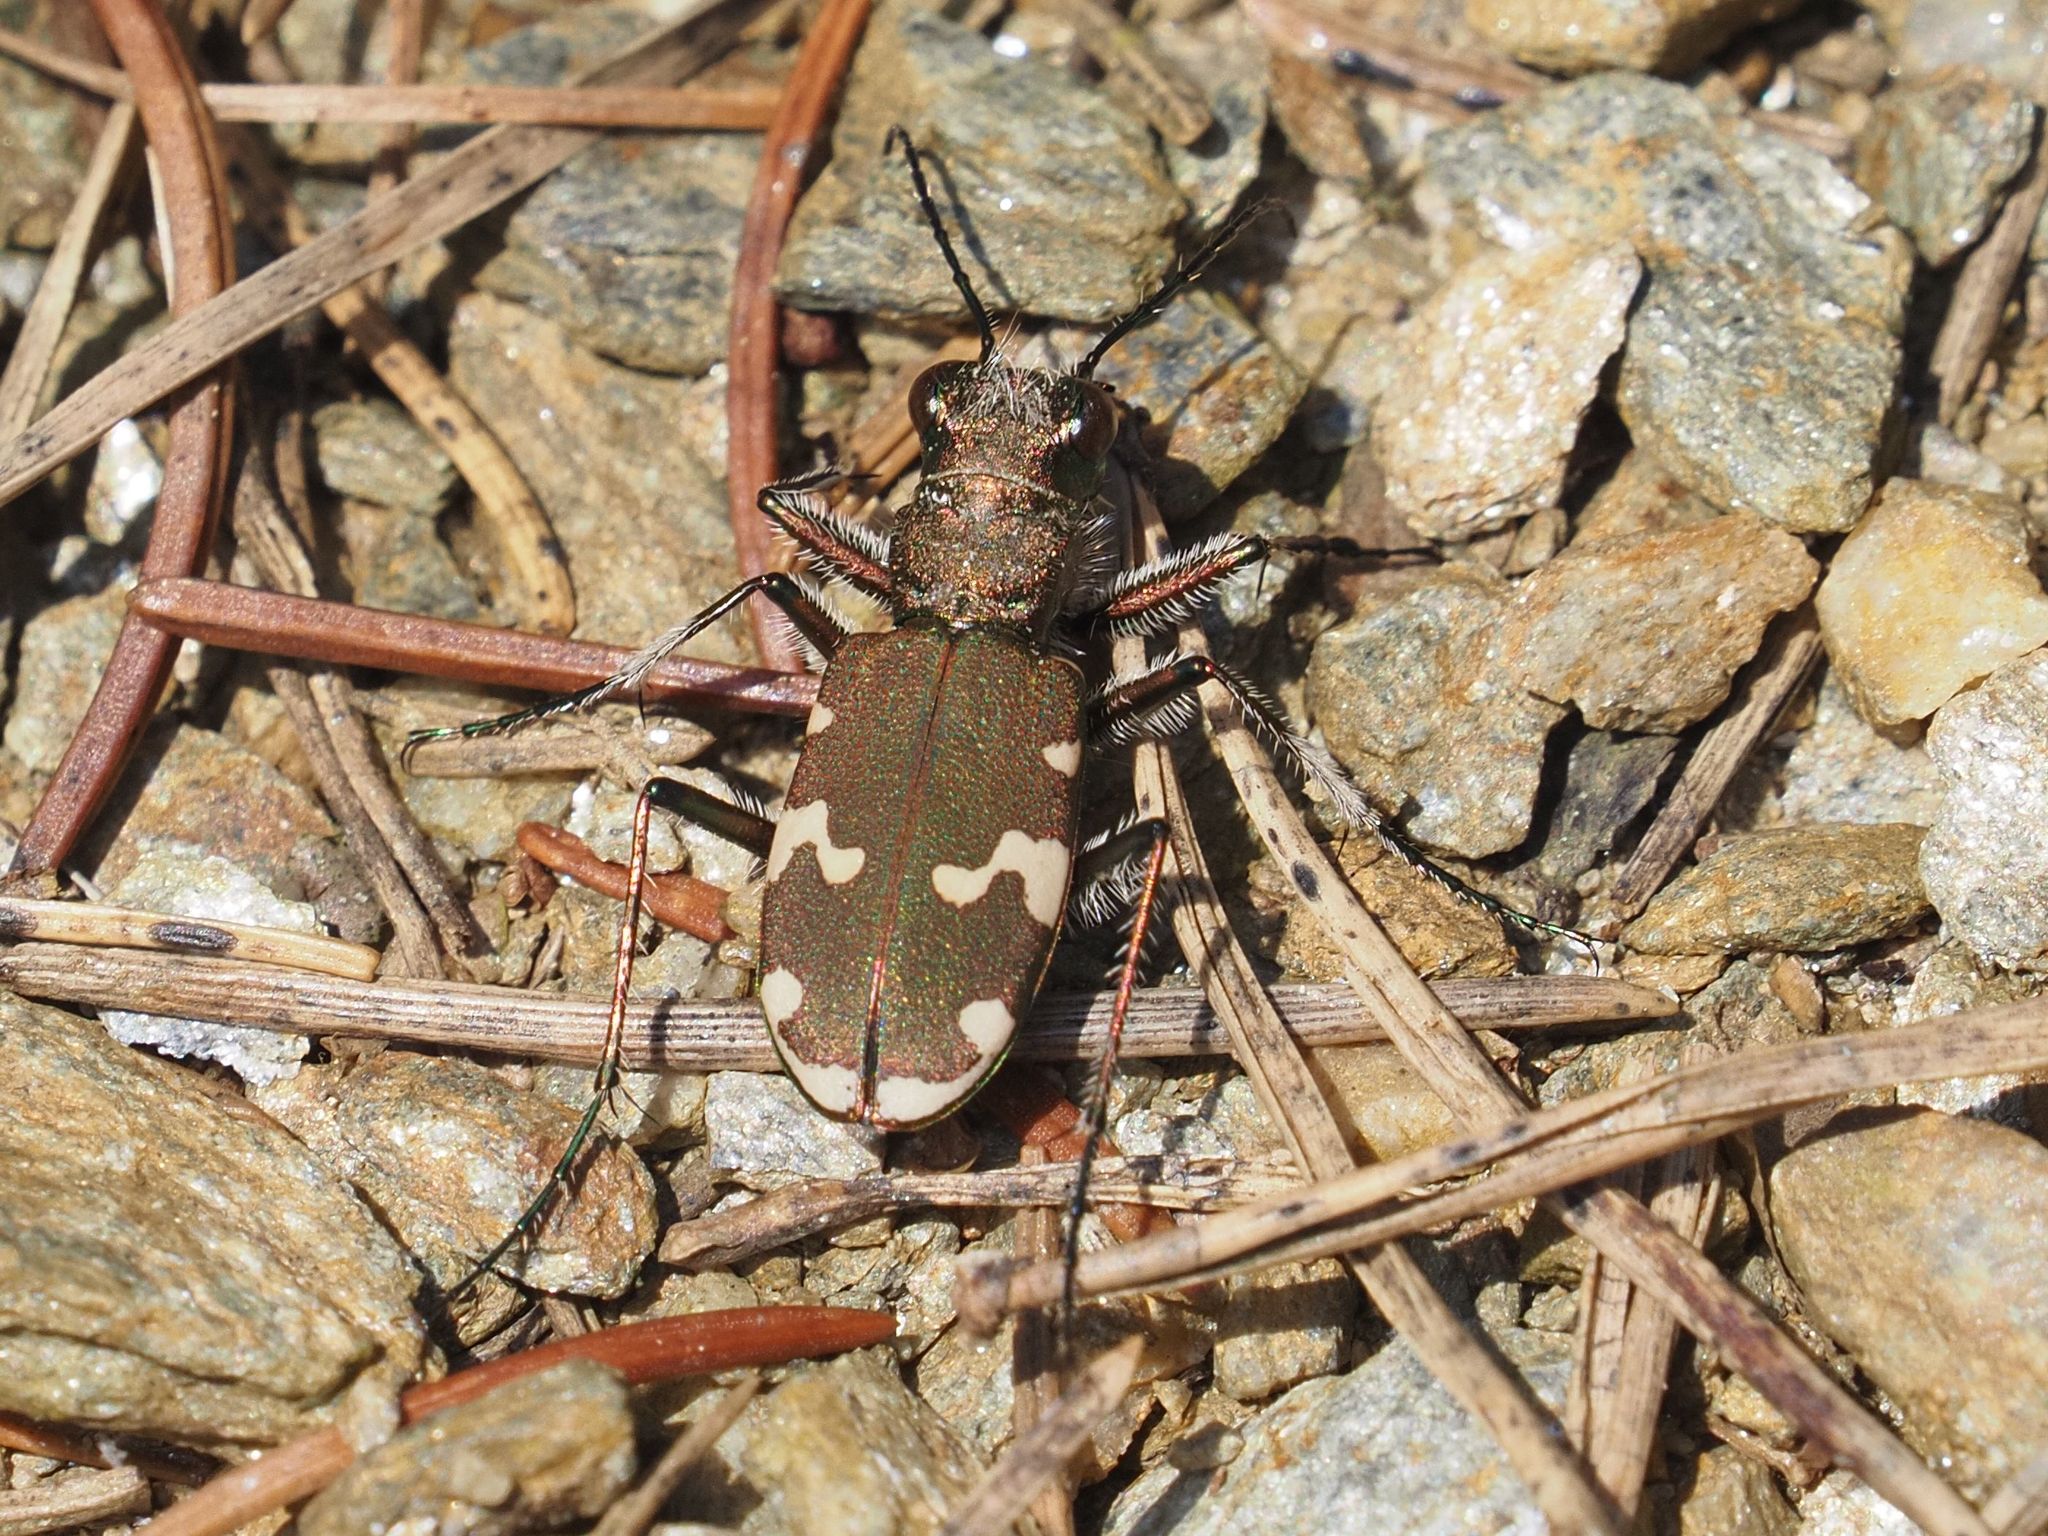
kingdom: Animalia
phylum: Arthropoda
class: Insecta
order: Coleoptera
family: Carabidae
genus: Cicindela
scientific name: Cicindela sylvicola
